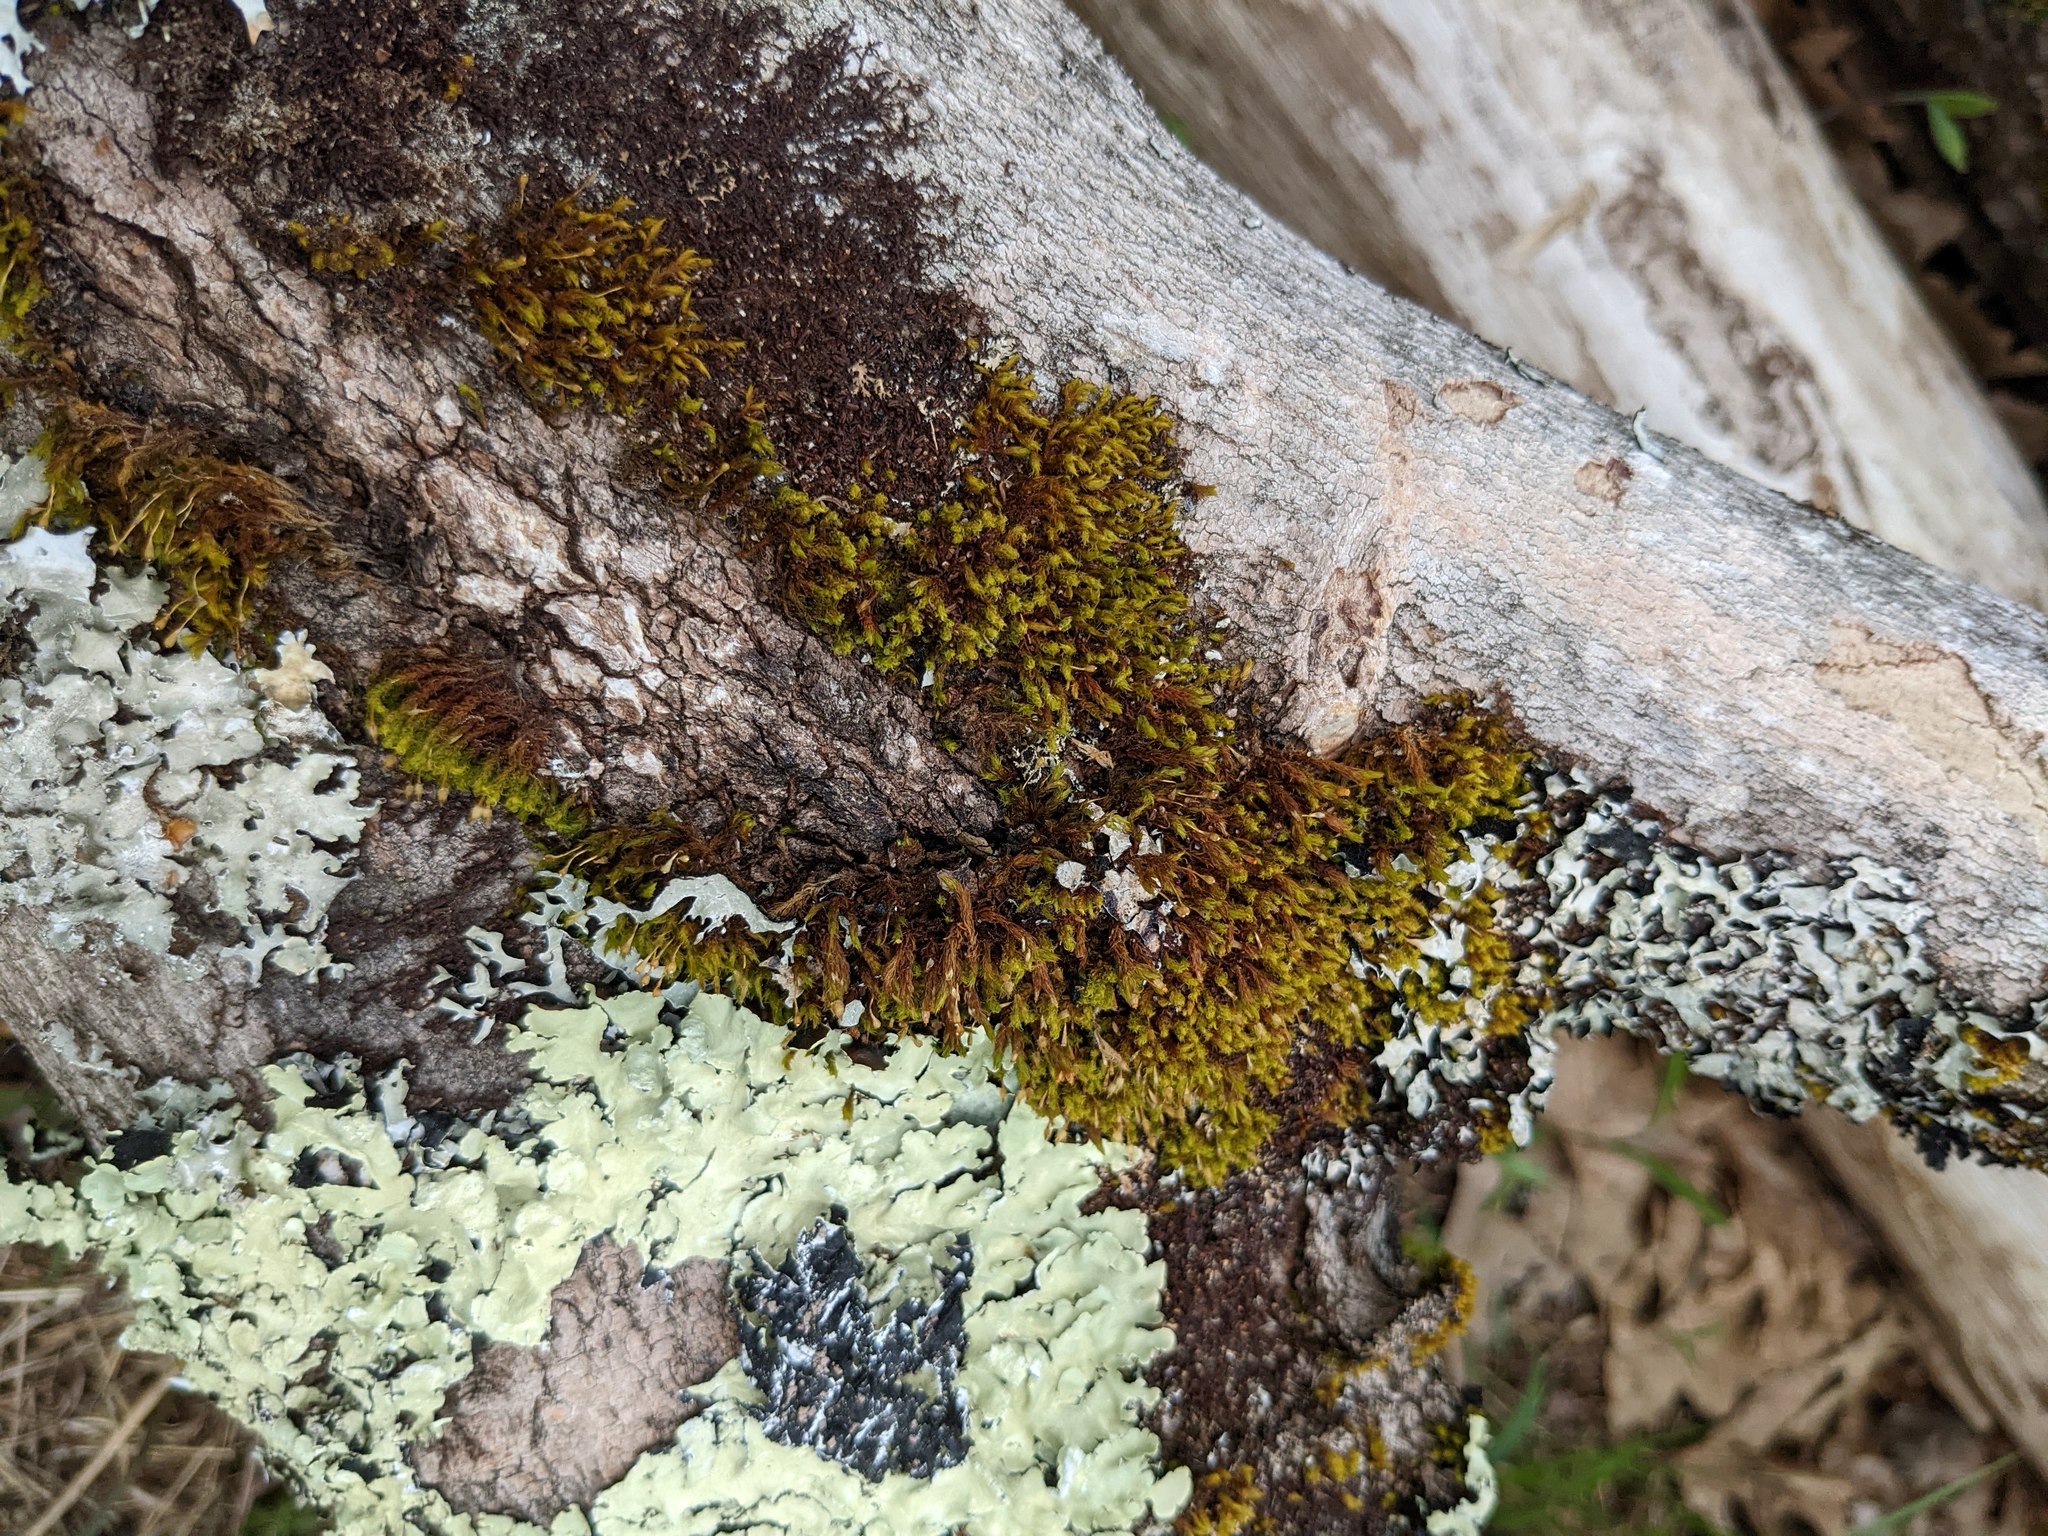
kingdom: Plantae
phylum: Bryophyta
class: Bryopsida
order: Orthotrichales
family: Orthotrichaceae
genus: Ulota
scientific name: Ulota crispa
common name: Crisped pincushion moss
